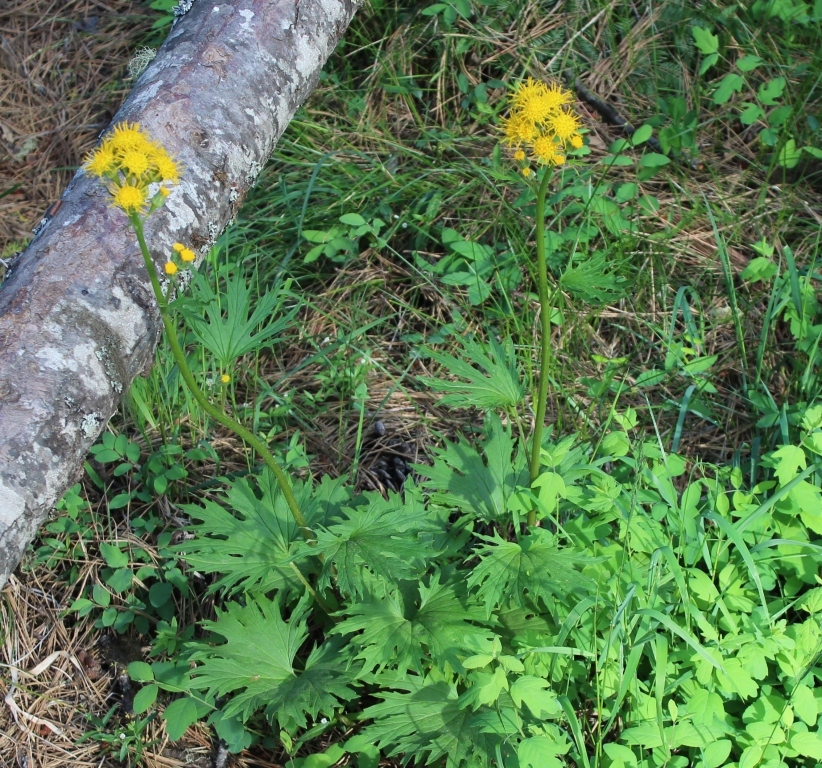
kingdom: Plantae
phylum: Tracheophyta
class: Magnoliopsida
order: Asterales
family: Asteraceae
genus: Cacaliopsis
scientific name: Cacaliopsis nardosmia
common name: Silvercrown
